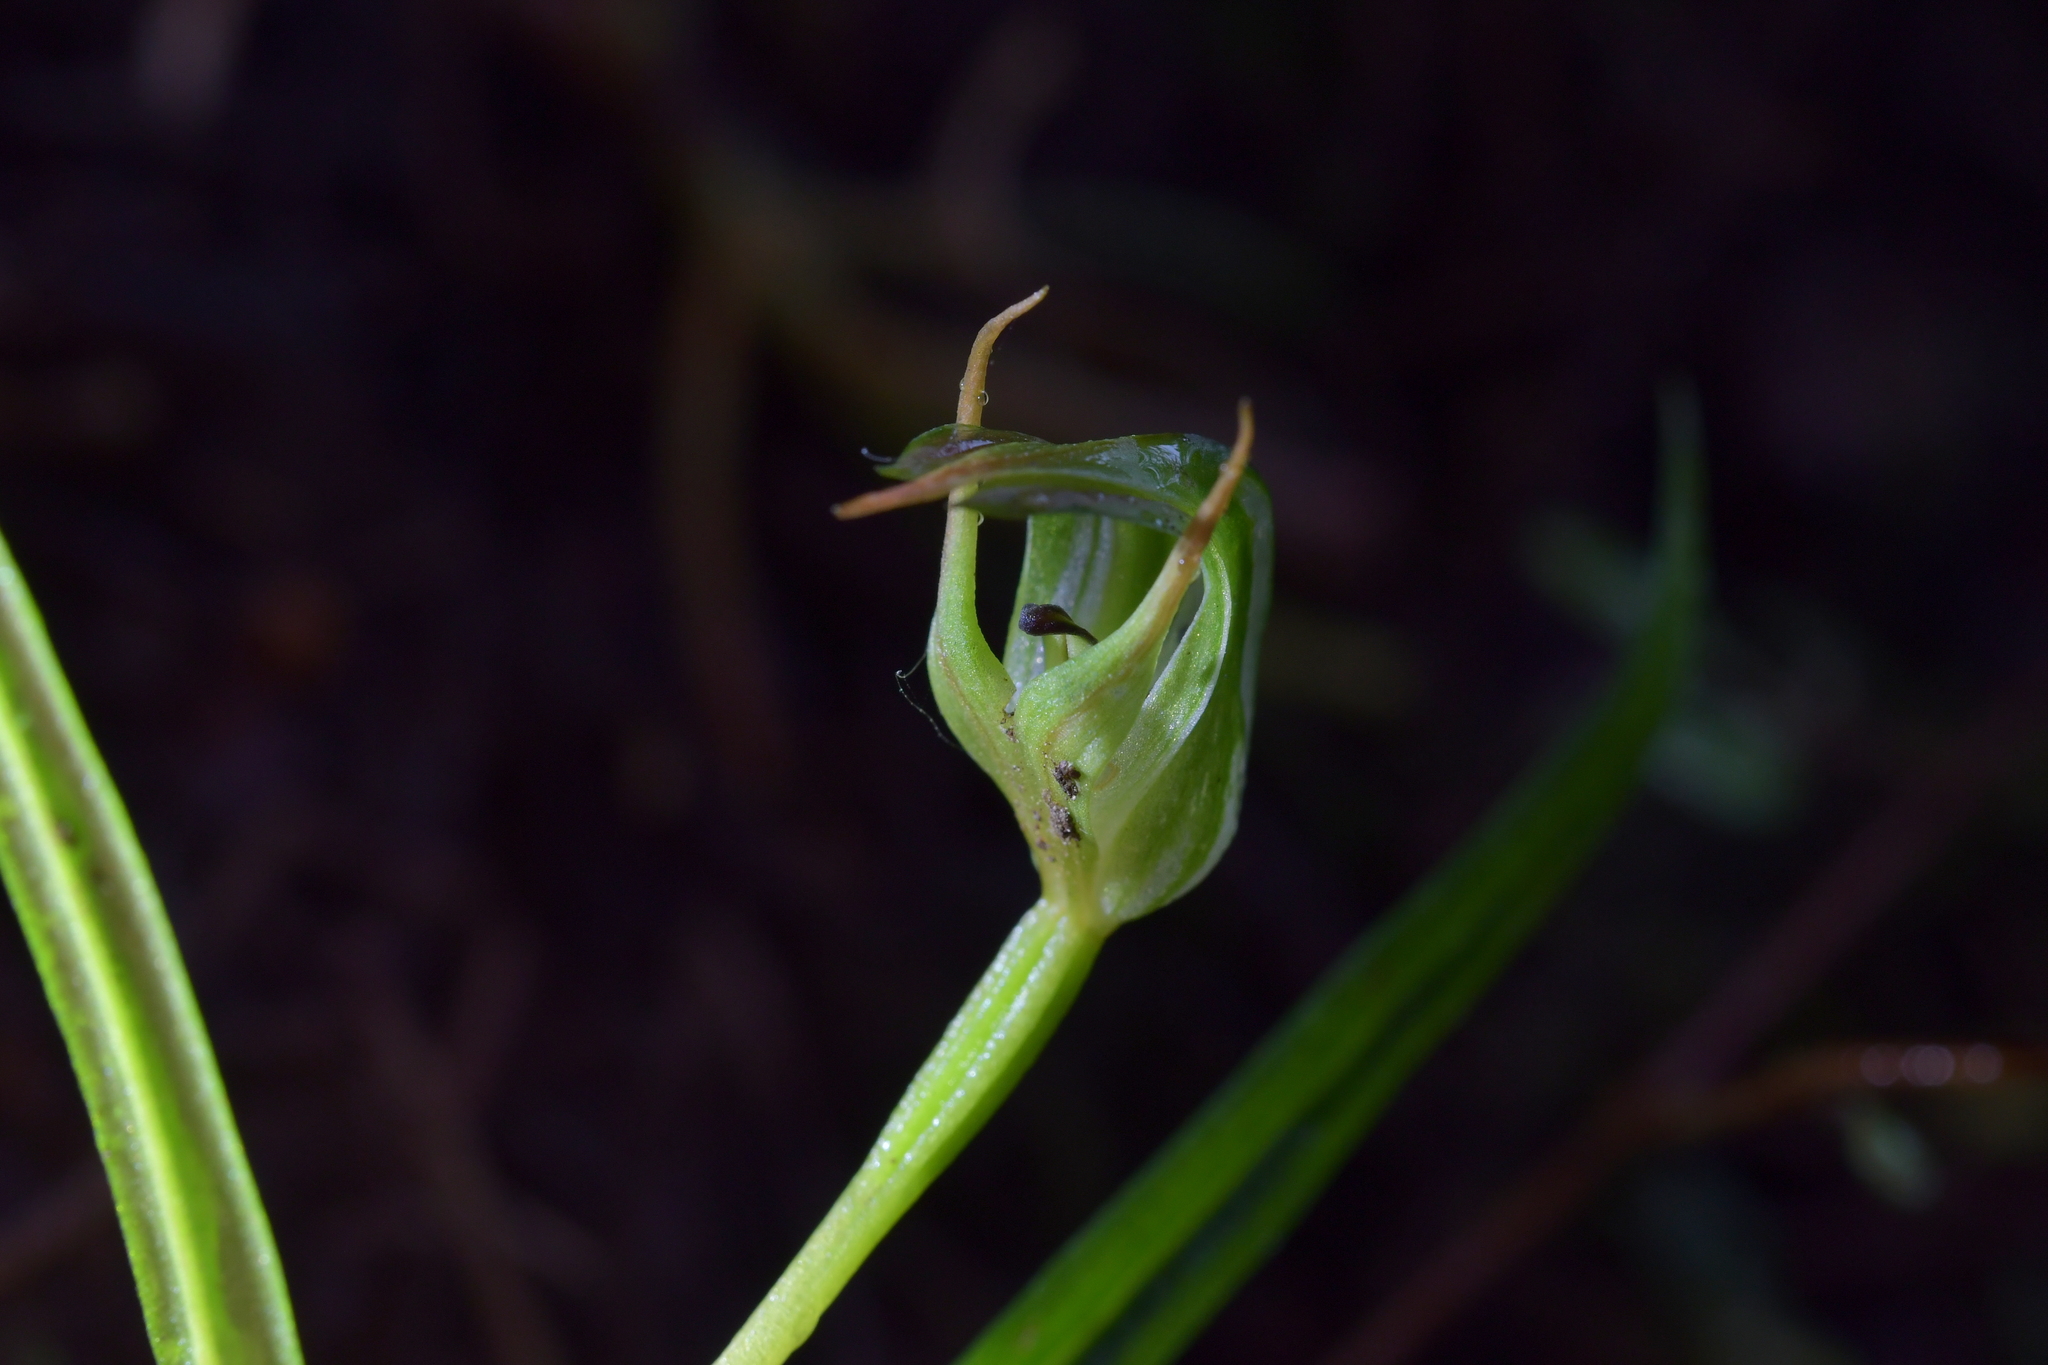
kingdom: Plantae
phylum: Tracheophyta
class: Liliopsida
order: Asparagales
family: Orchidaceae
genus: Pterostylis
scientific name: Pterostylis graminea
